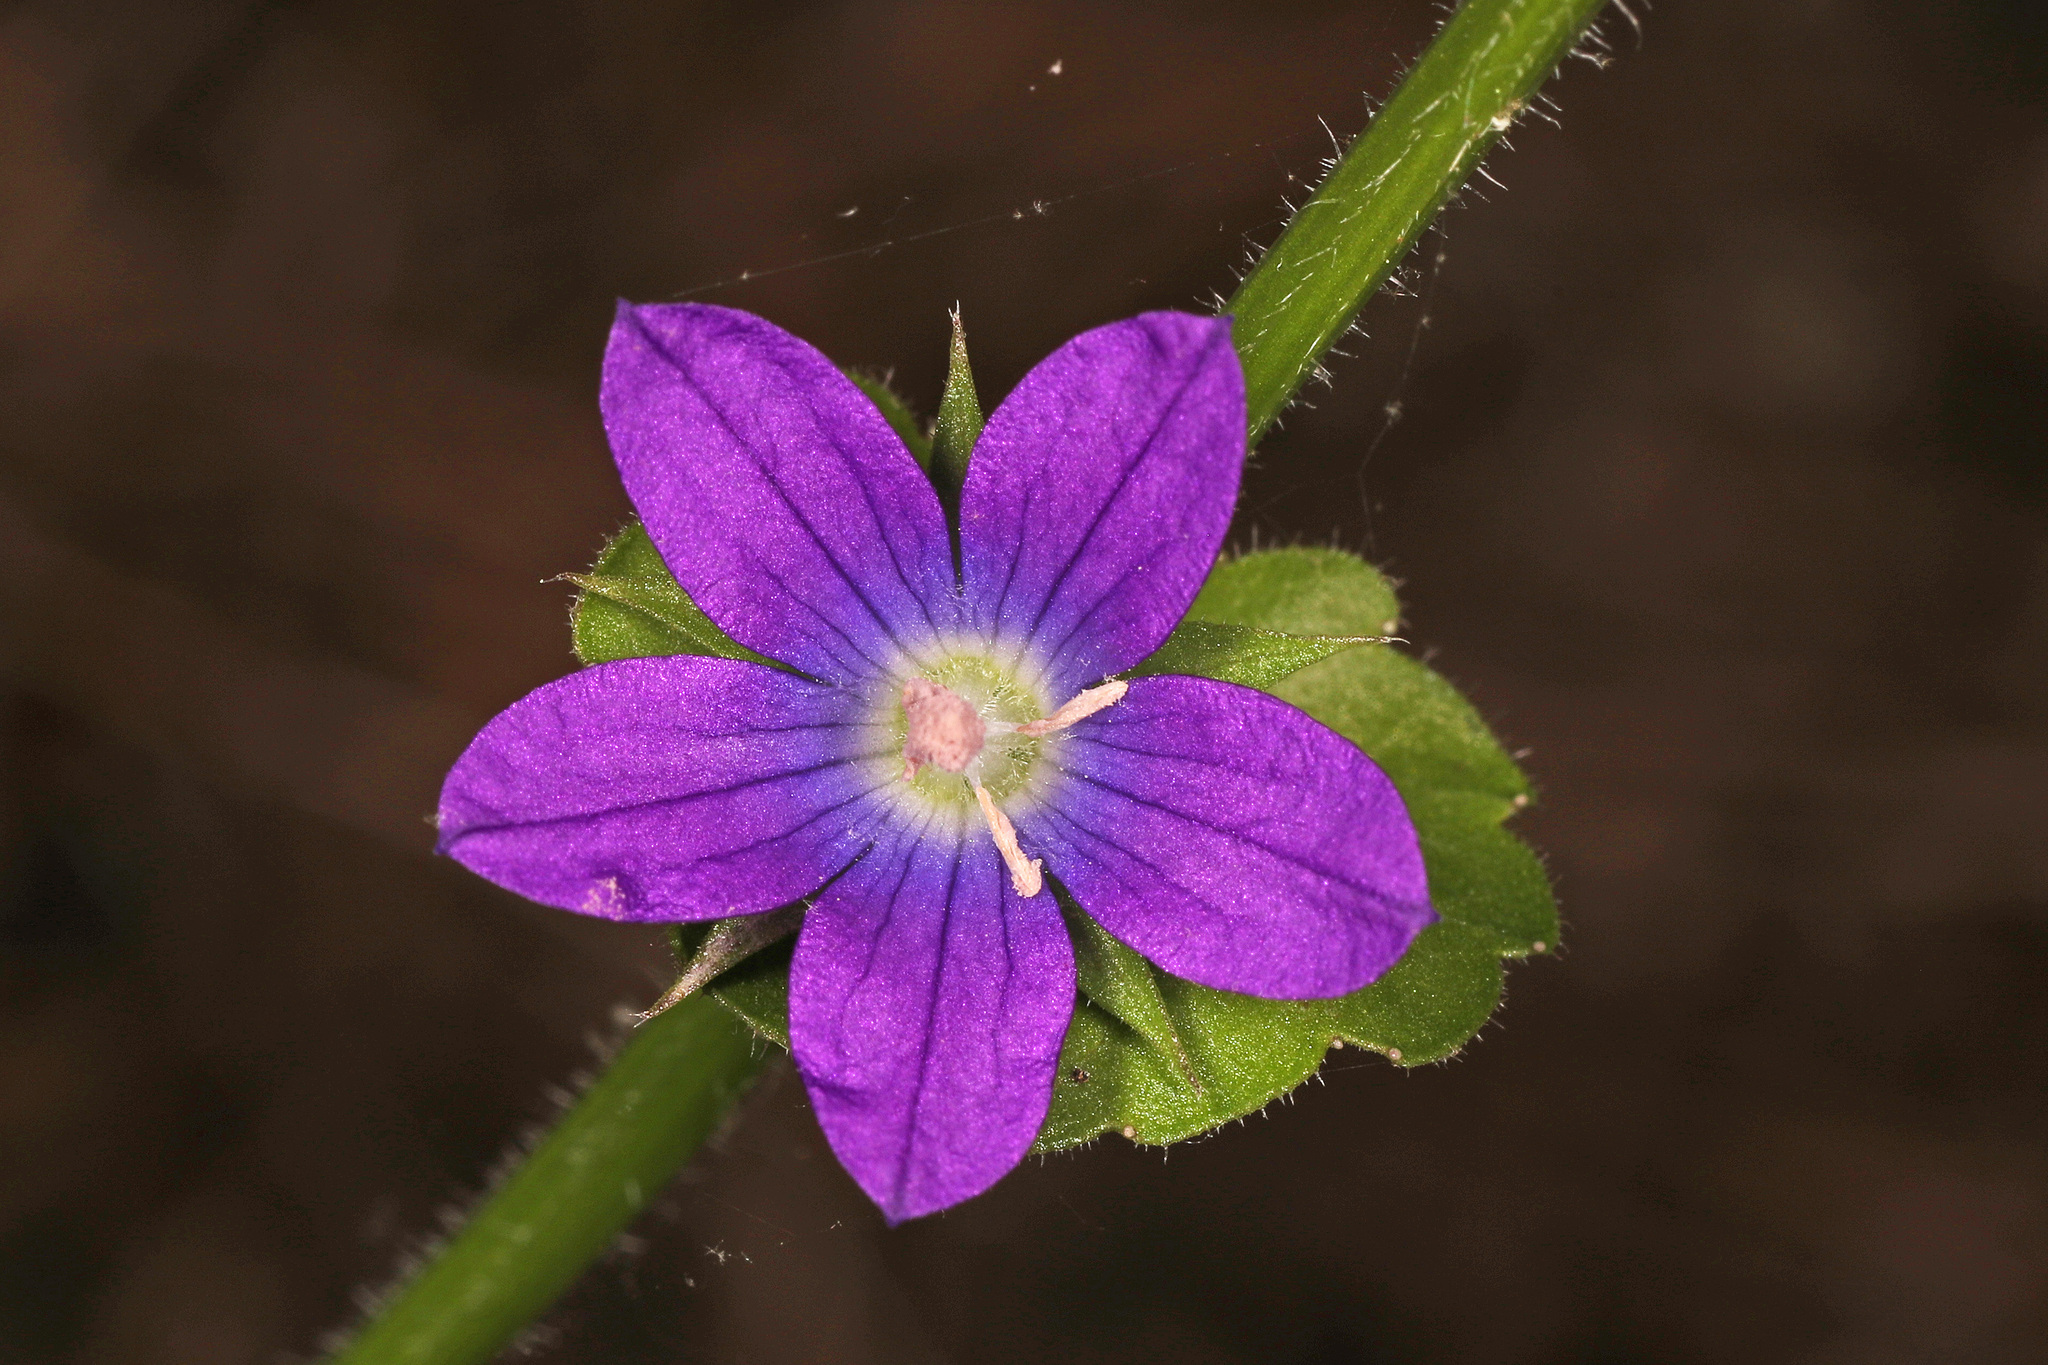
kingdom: Plantae
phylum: Tracheophyta
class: Magnoliopsida
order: Asterales
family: Campanulaceae
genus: Triodanis
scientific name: Triodanis perfoliata
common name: Clasping venus' looking-glass
